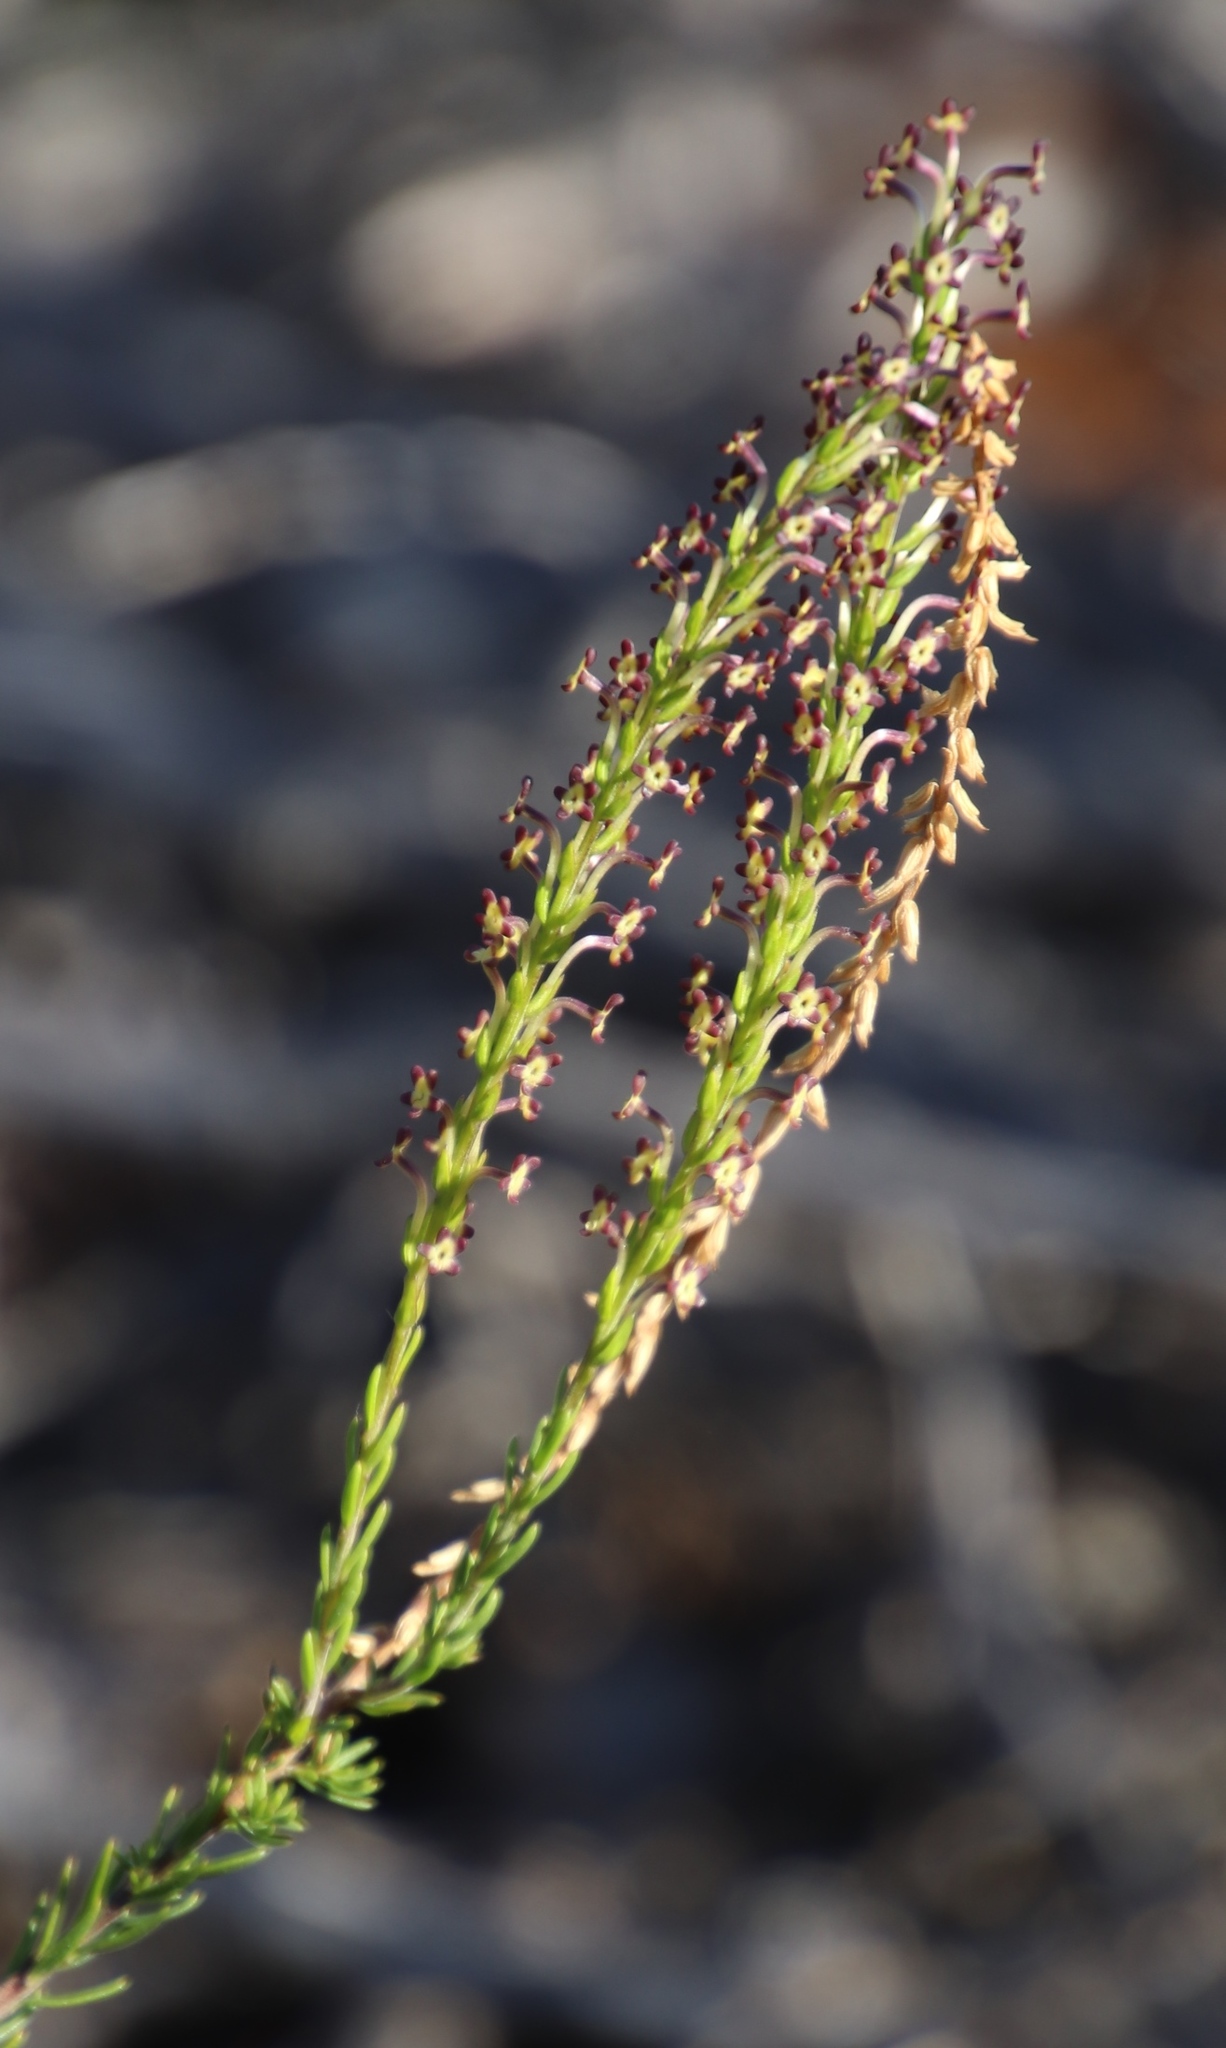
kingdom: Plantae
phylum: Tracheophyta
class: Magnoliopsida
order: Lamiales
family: Scrophulariaceae
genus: Microdon
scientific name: Microdon dubius
